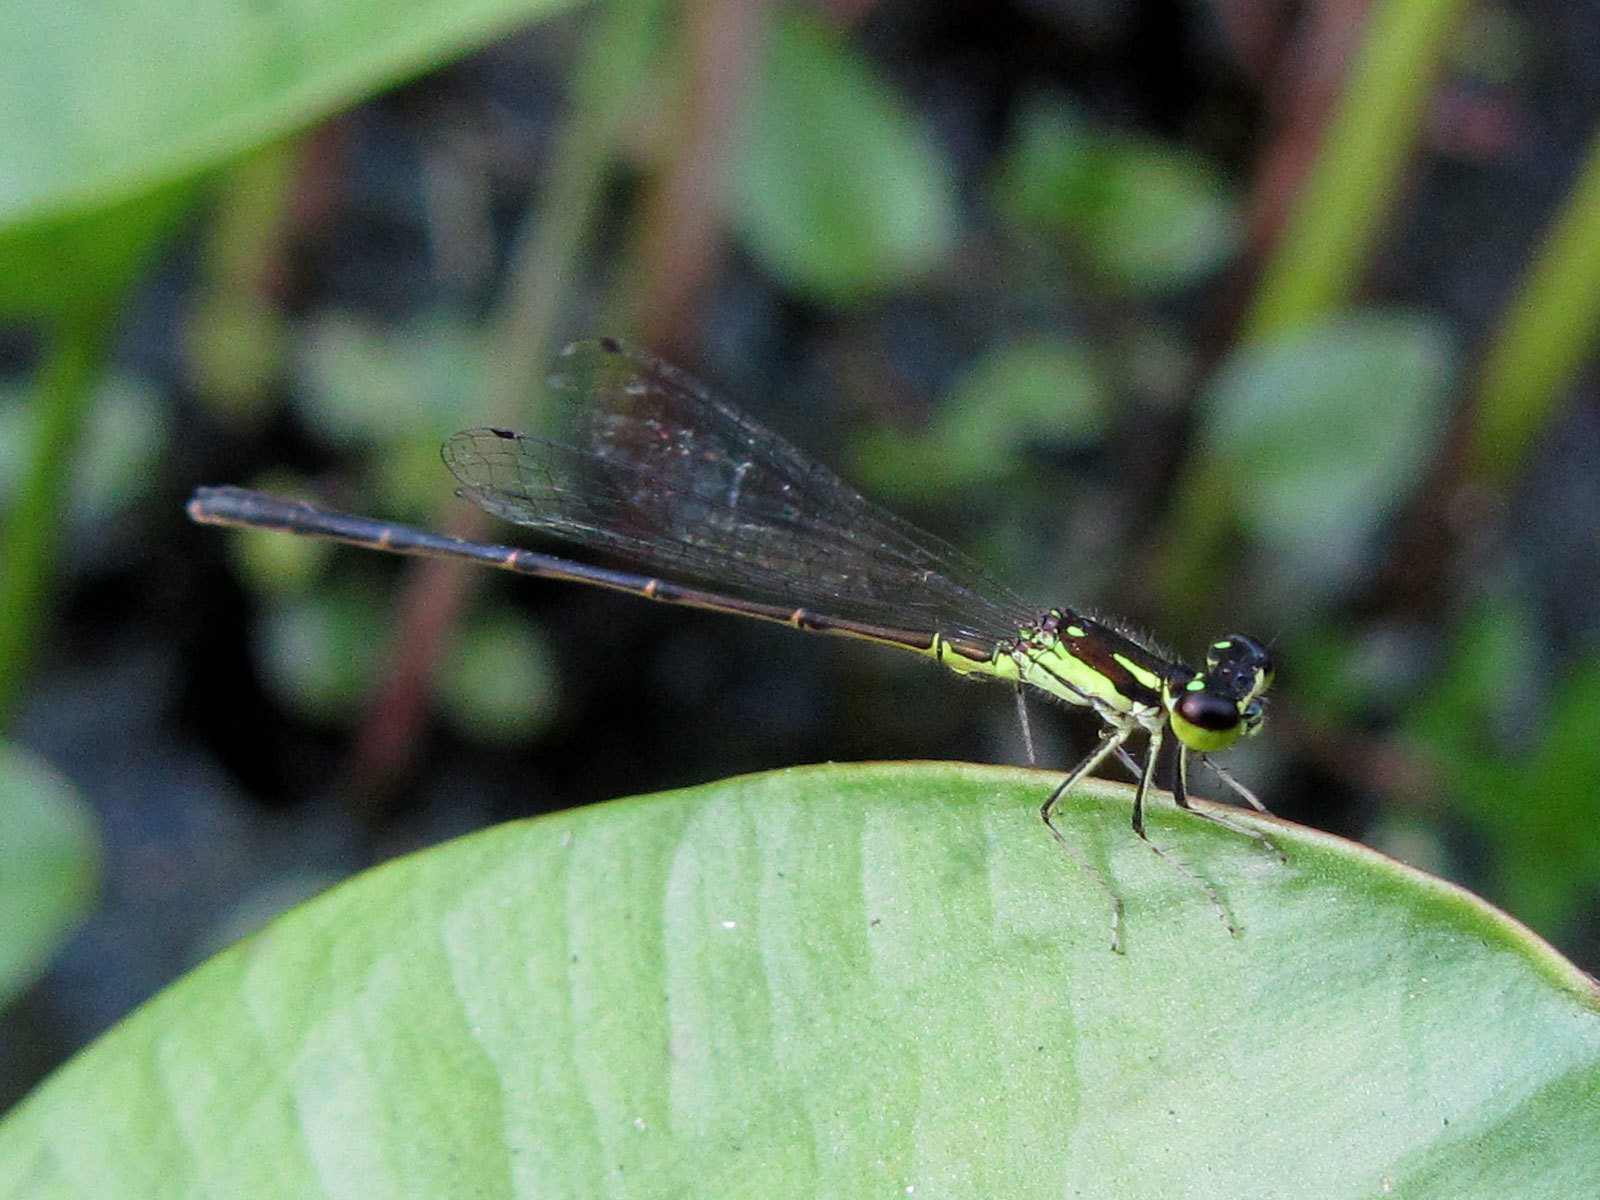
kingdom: Animalia
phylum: Arthropoda
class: Insecta
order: Odonata
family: Coenagrionidae
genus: Ischnura
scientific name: Ischnura posita
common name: Fragile forktail
